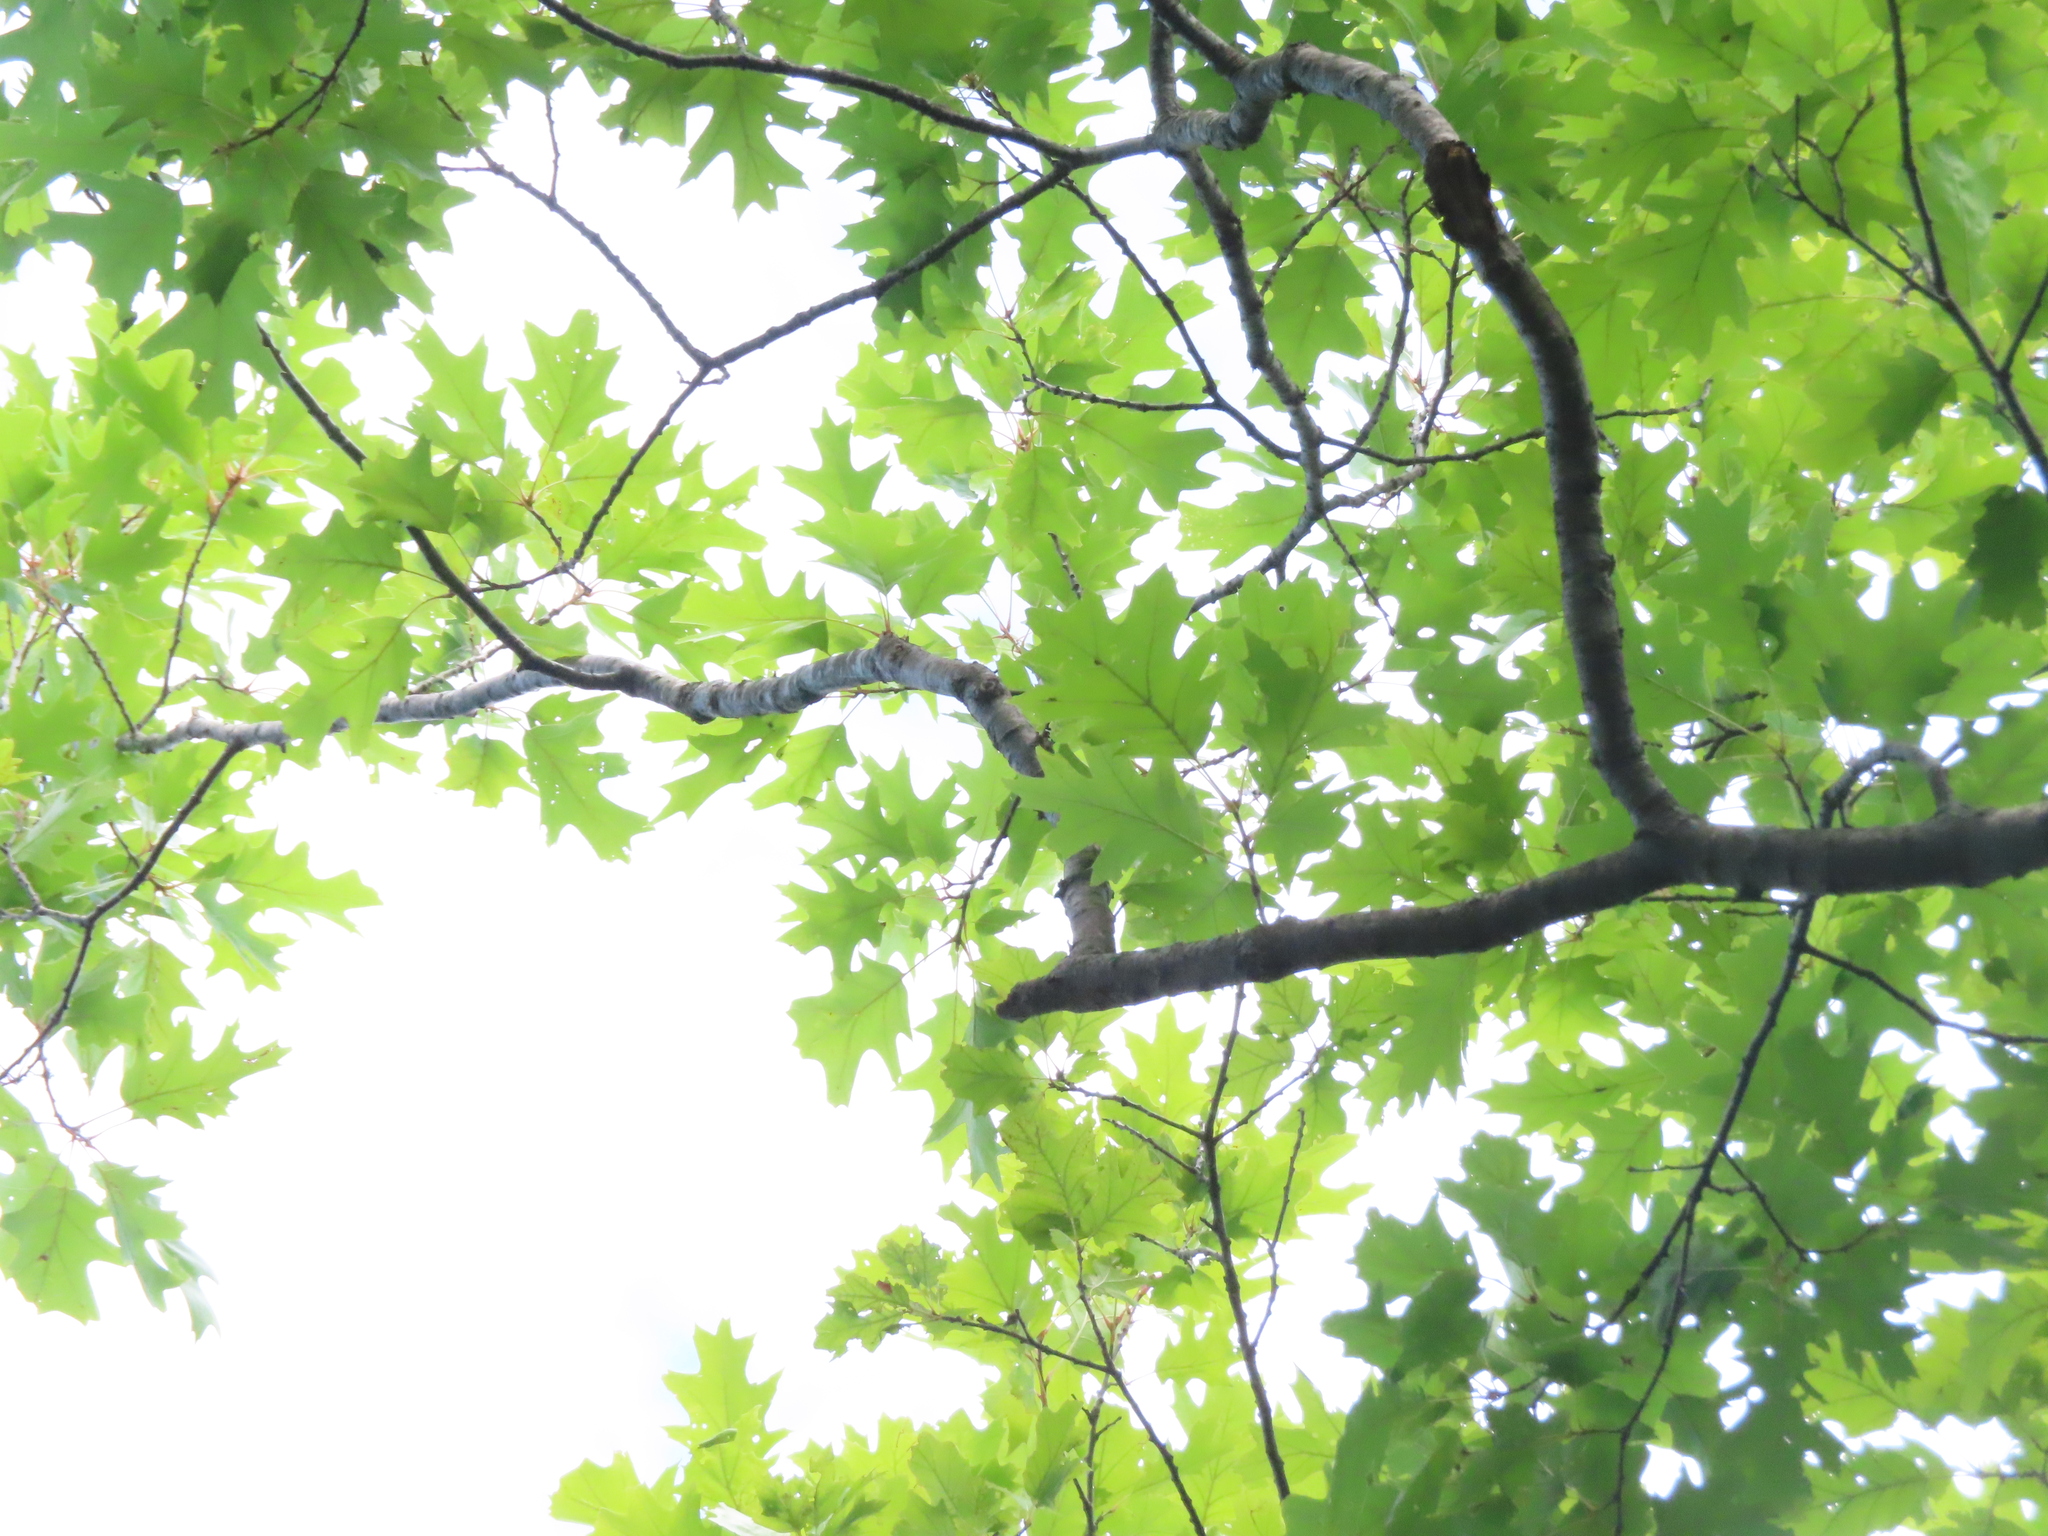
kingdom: Plantae
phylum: Tracheophyta
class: Magnoliopsida
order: Fagales
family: Fagaceae
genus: Quercus
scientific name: Quercus
